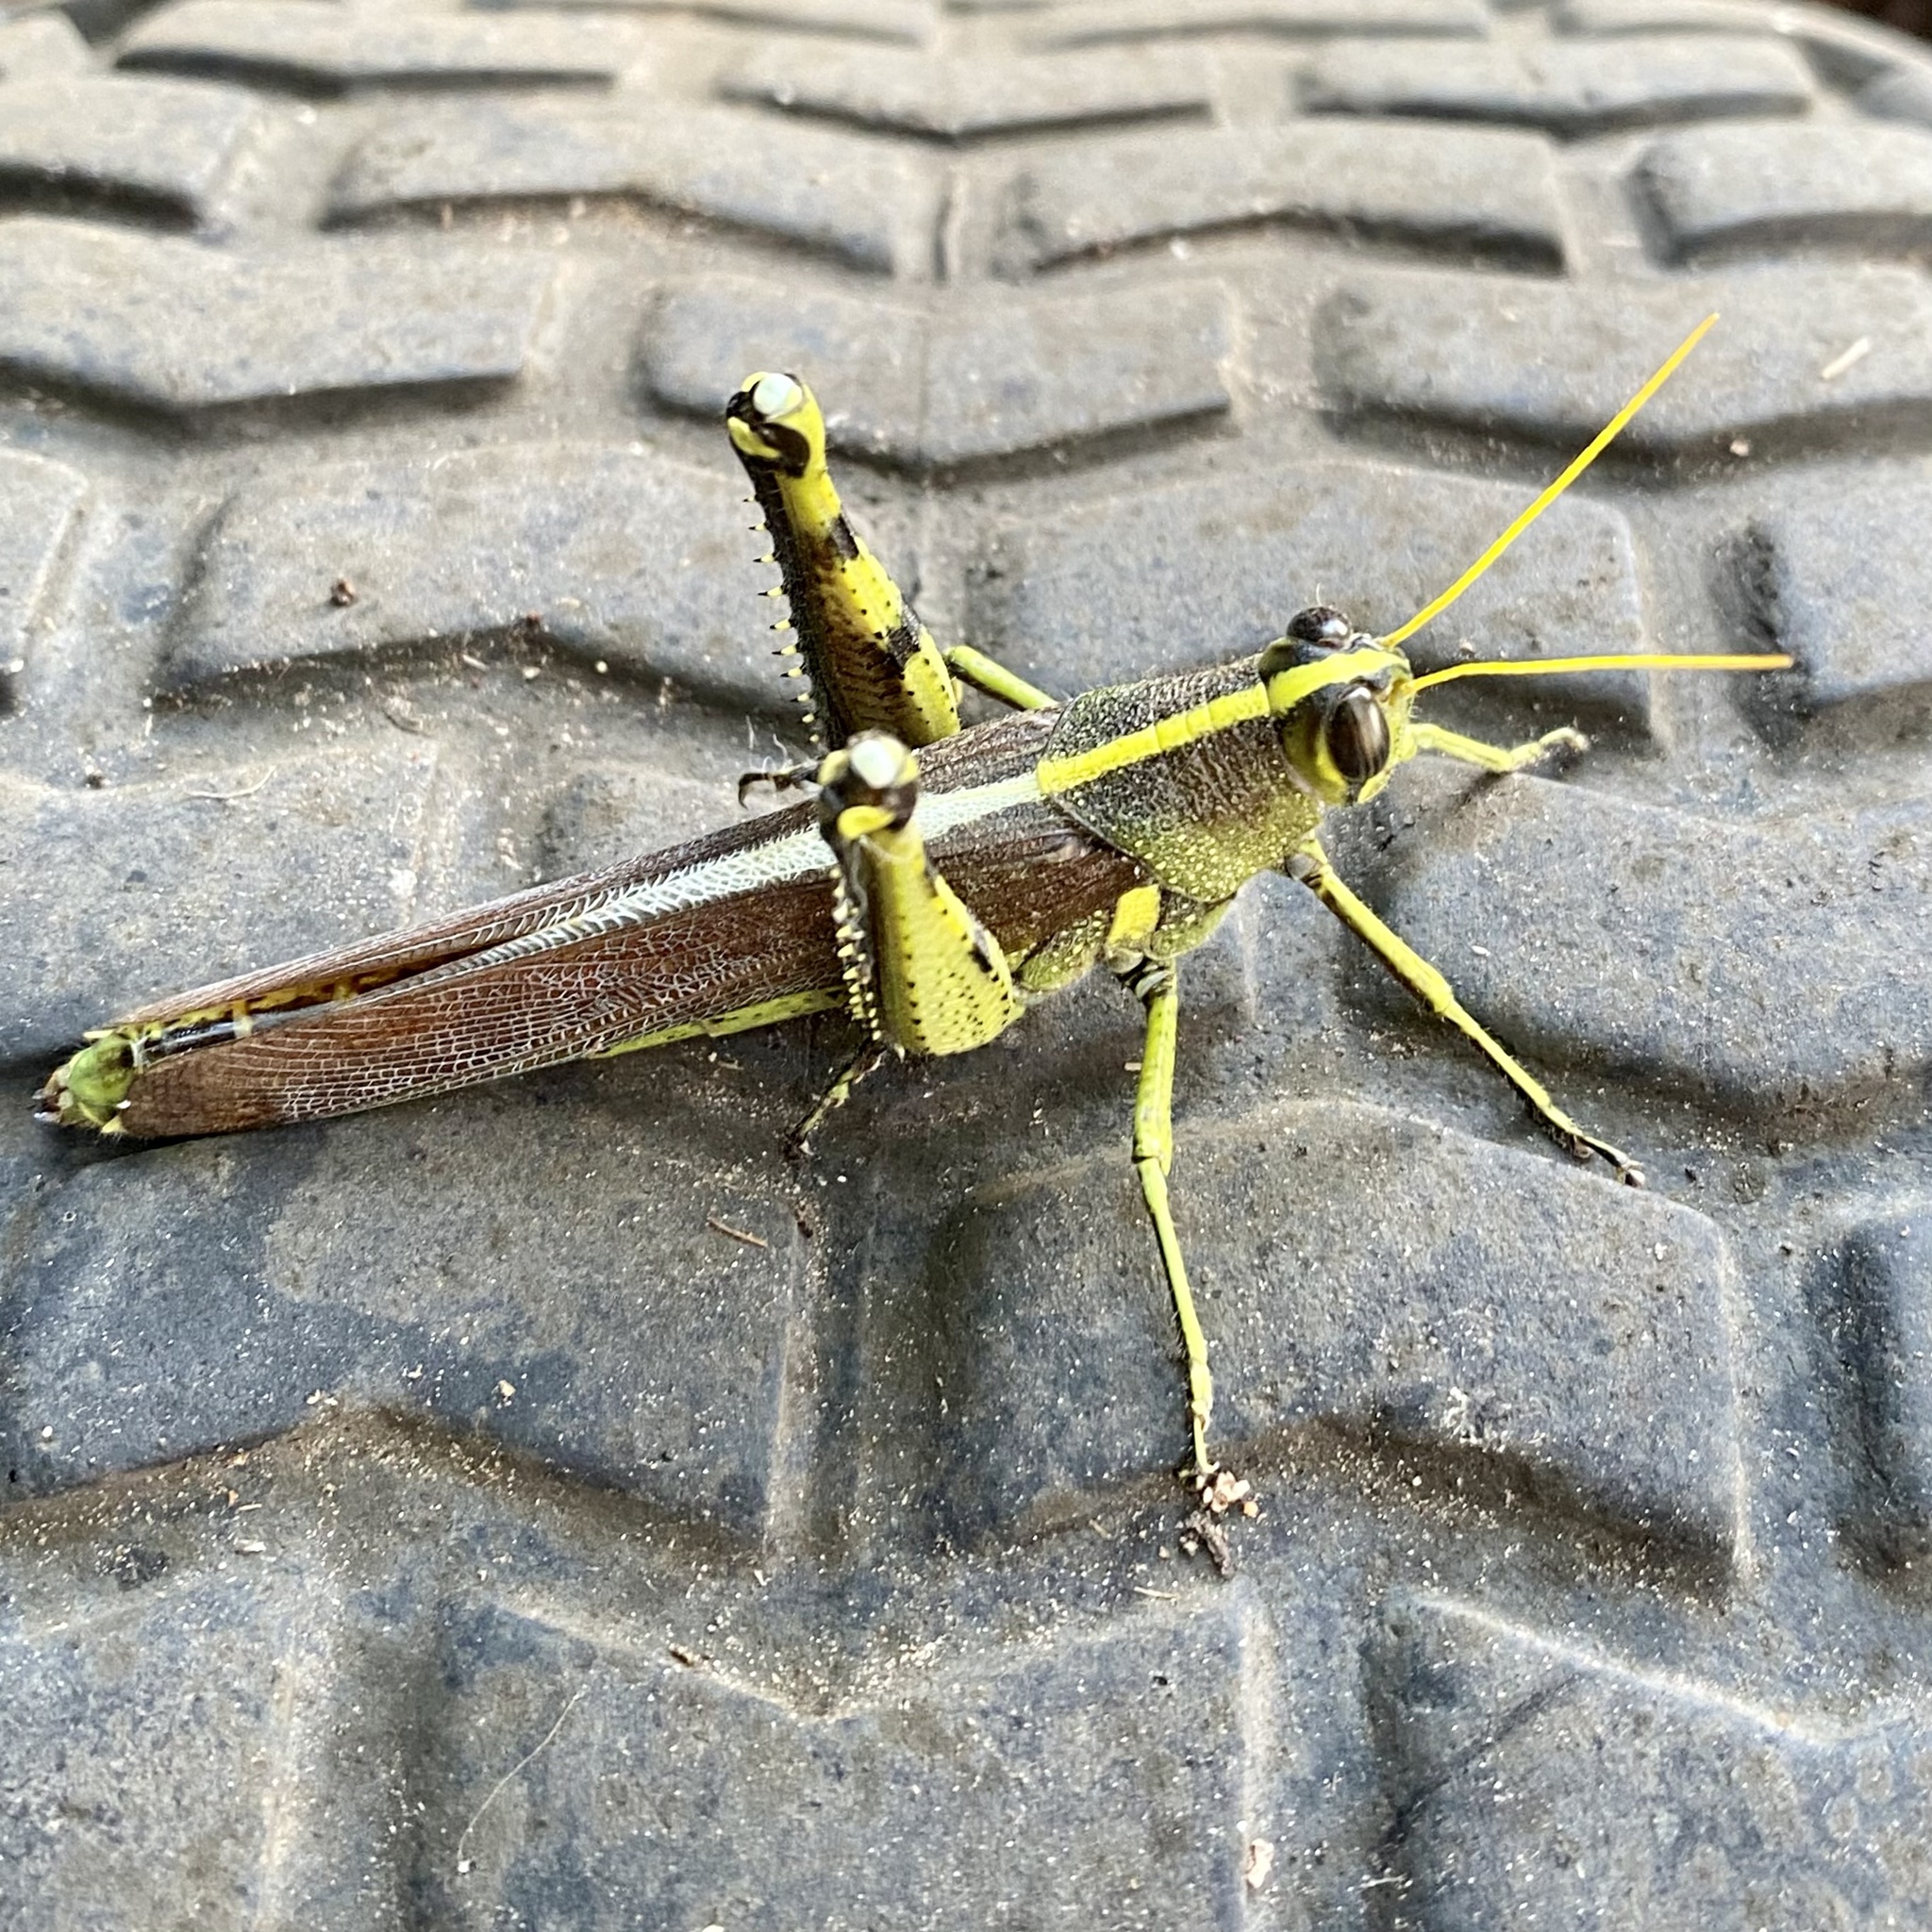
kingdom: Animalia
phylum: Arthropoda
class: Insecta
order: Orthoptera
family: Acrididae
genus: Schistocerca
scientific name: Schistocerca obscura
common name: Obscure bird grasshopper
